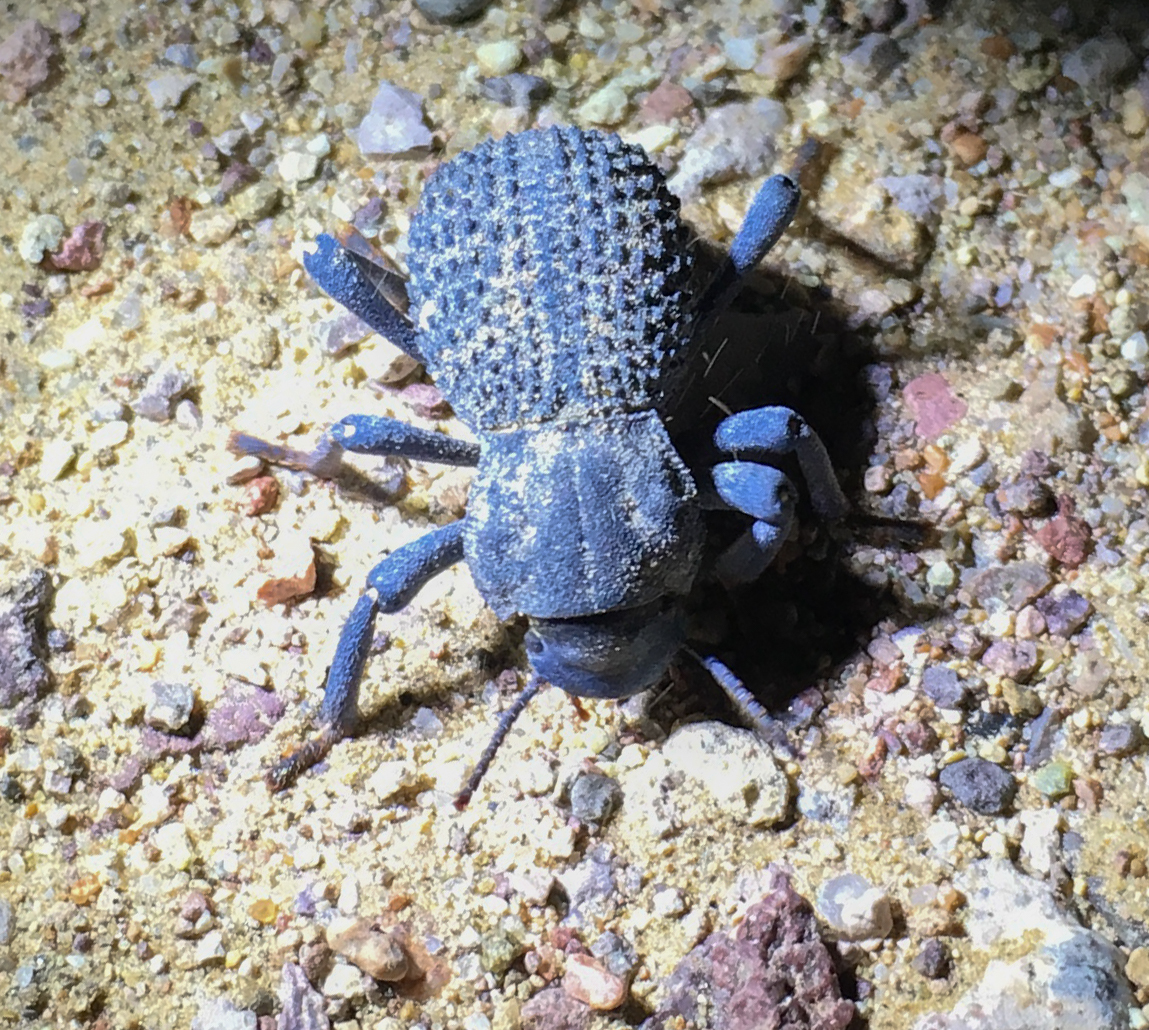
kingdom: Animalia
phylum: Arthropoda
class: Insecta
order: Coleoptera
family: Tenebrionidae
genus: Asbolus
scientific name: Asbolus verrucosus
